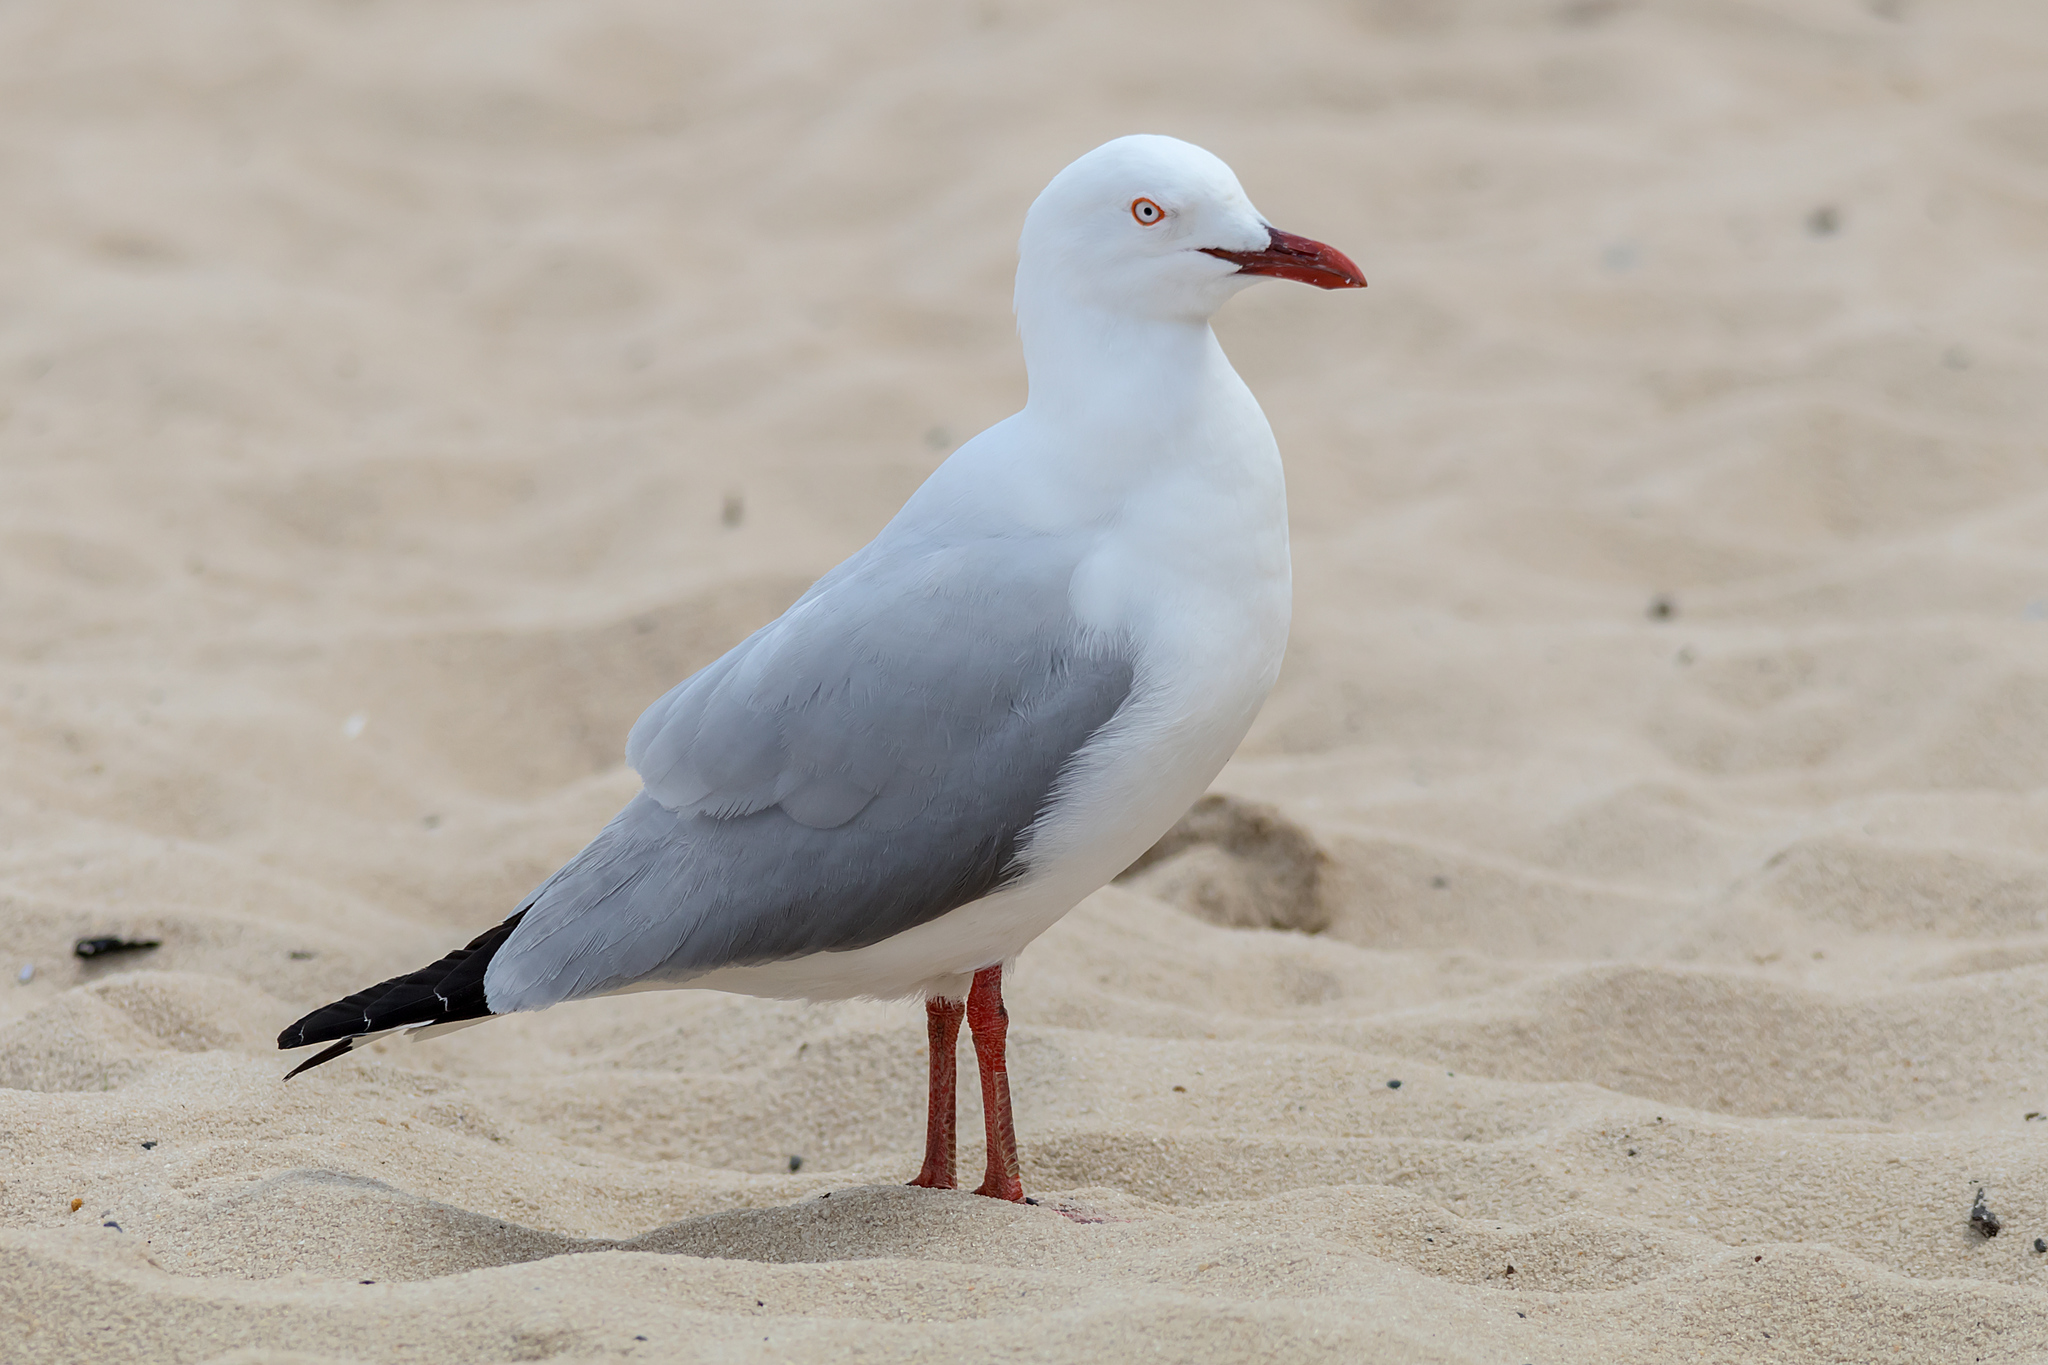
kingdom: Animalia
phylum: Chordata
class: Aves
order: Charadriiformes
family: Laridae
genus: Chroicocephalus
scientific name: Chroicocephalus novaehollandiae
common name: Silver gull
